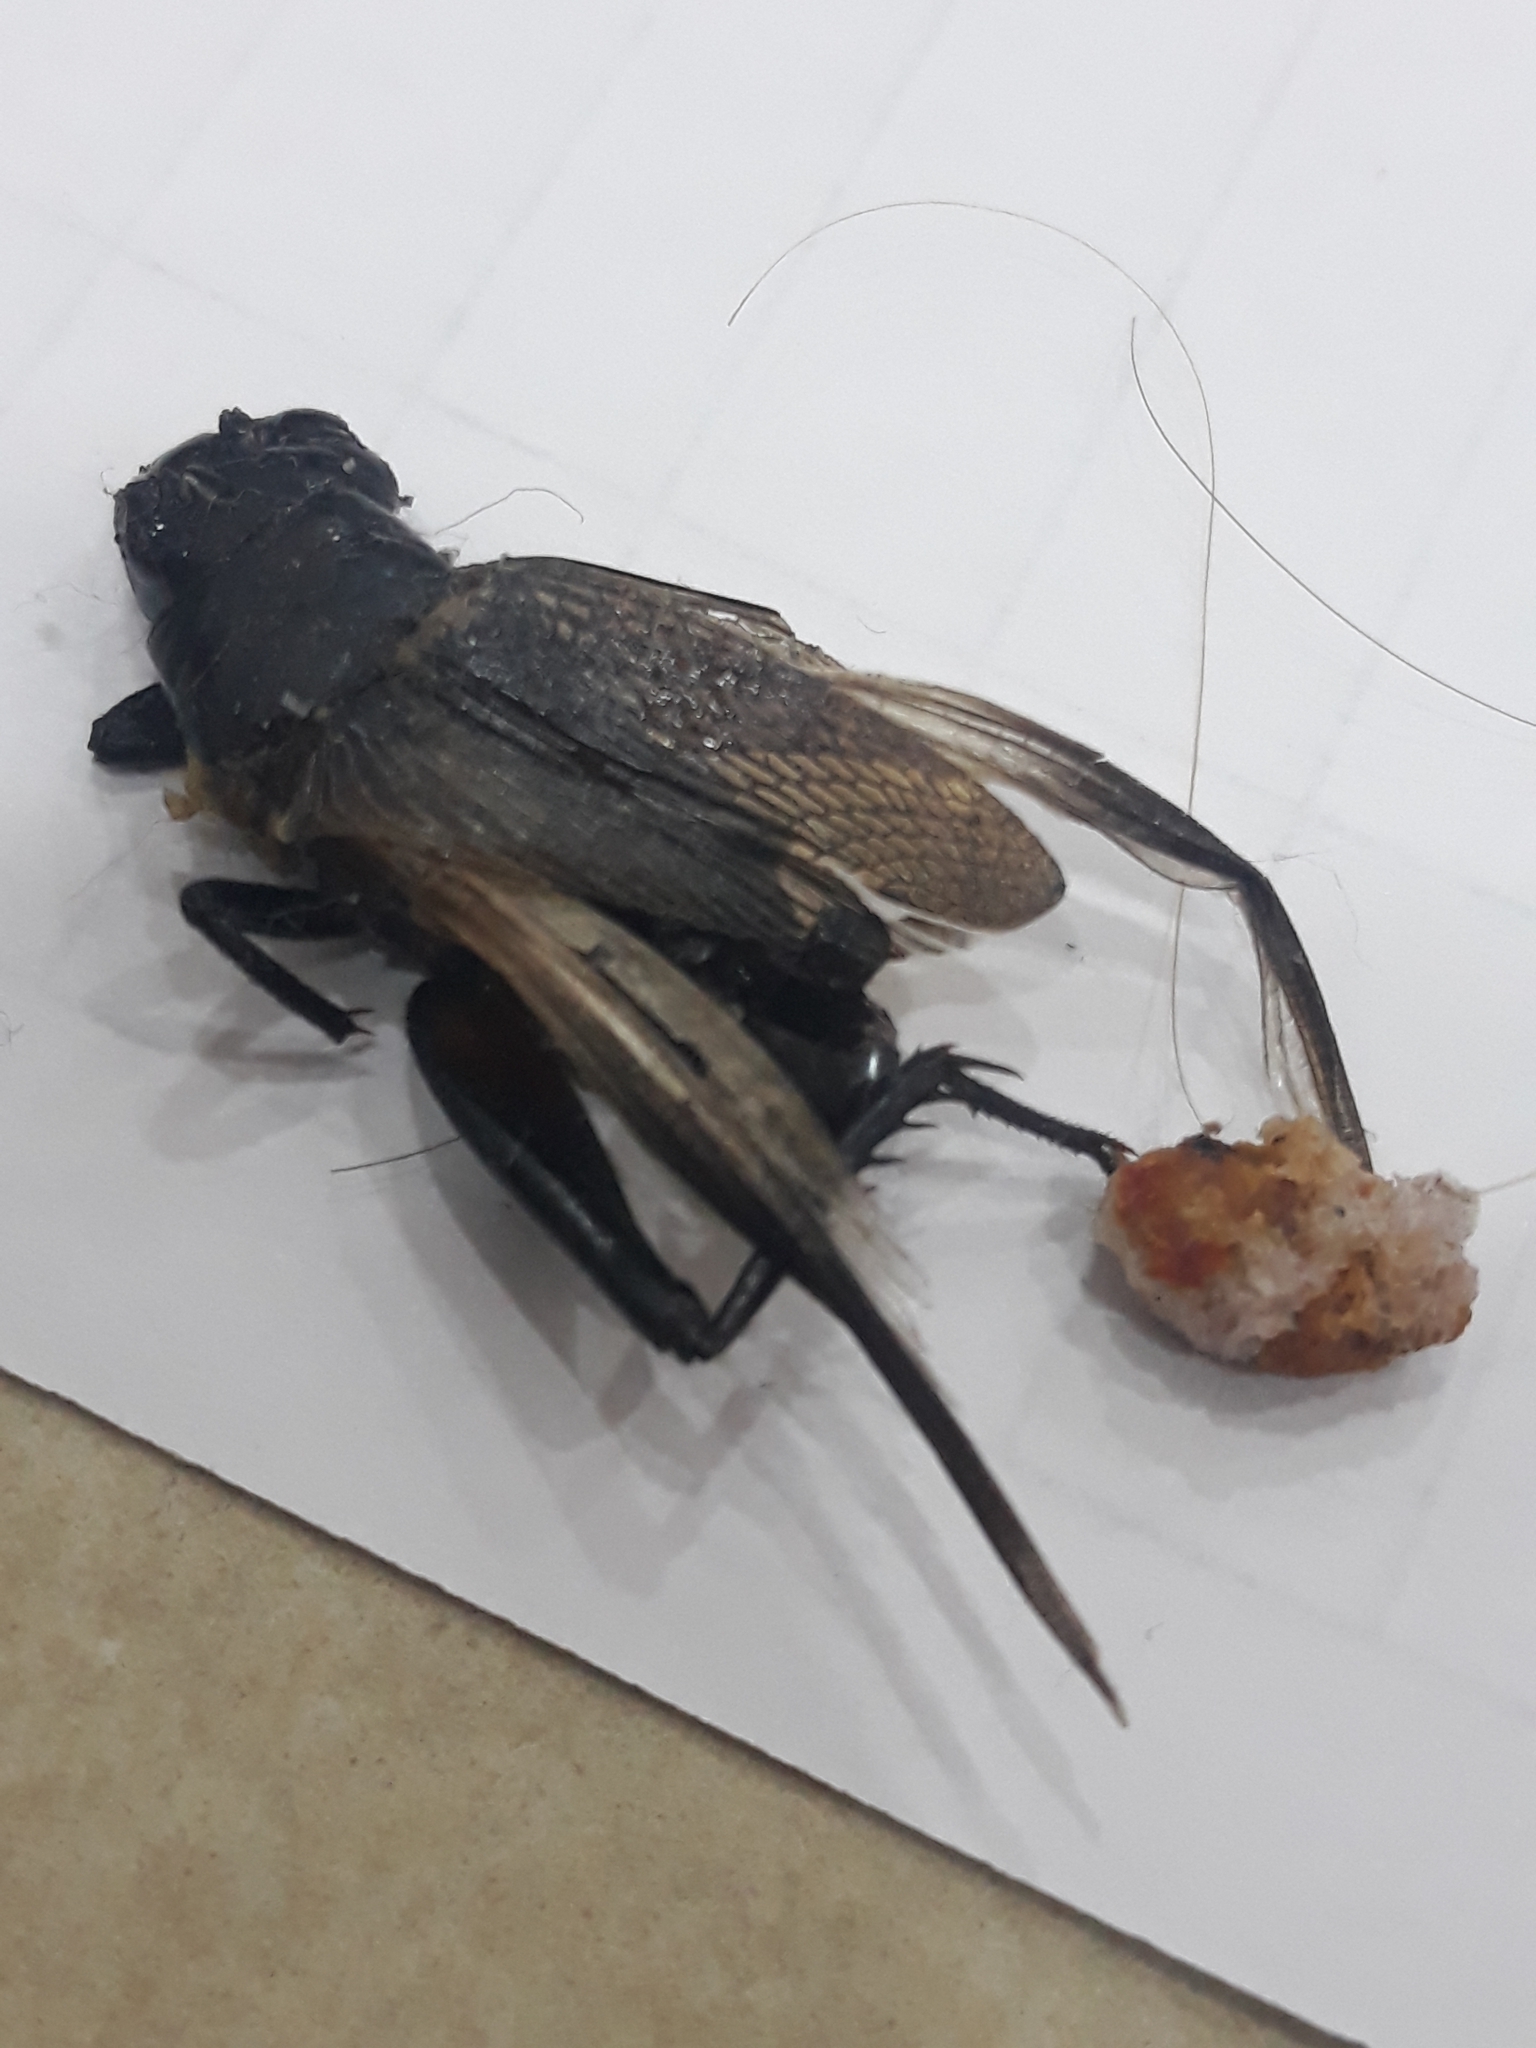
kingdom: Animalia
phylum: Arthropoda
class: Insecta
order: Orthoptera
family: Gryllidae
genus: Gryllus
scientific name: Gryllus bimaculatus
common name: Two-spotted cricket
